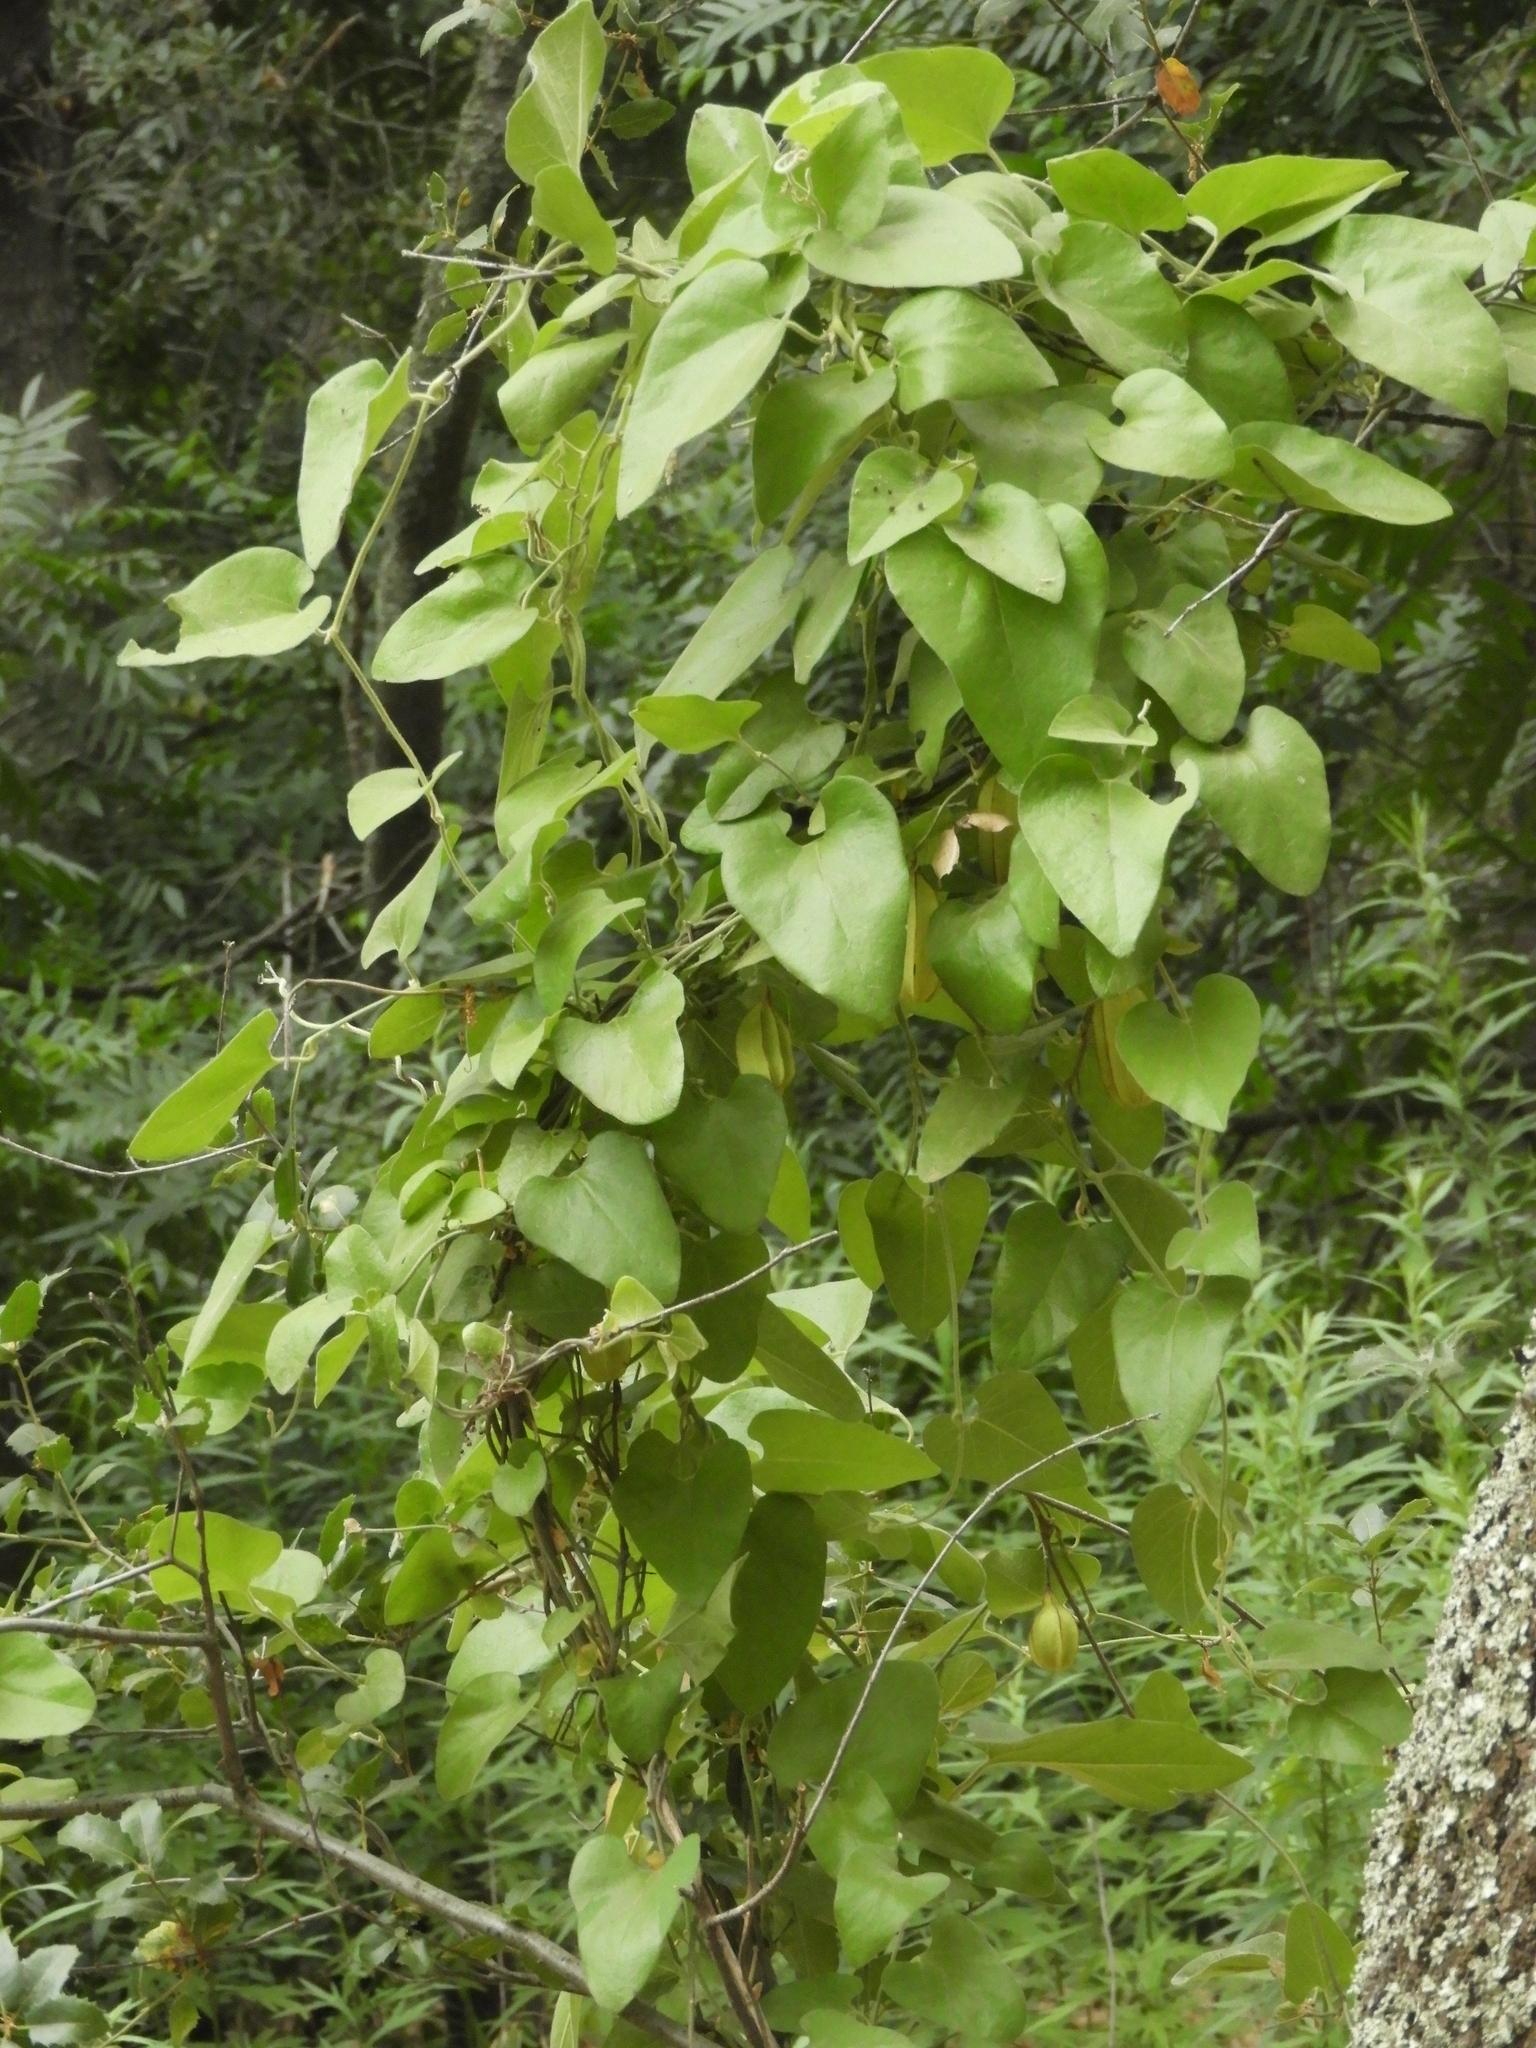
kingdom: Plantae
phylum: Tracheophyta
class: Magnoliopsida
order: Piperales
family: Aristolochiaceae
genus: Isotrema
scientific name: Isotrema californicum
